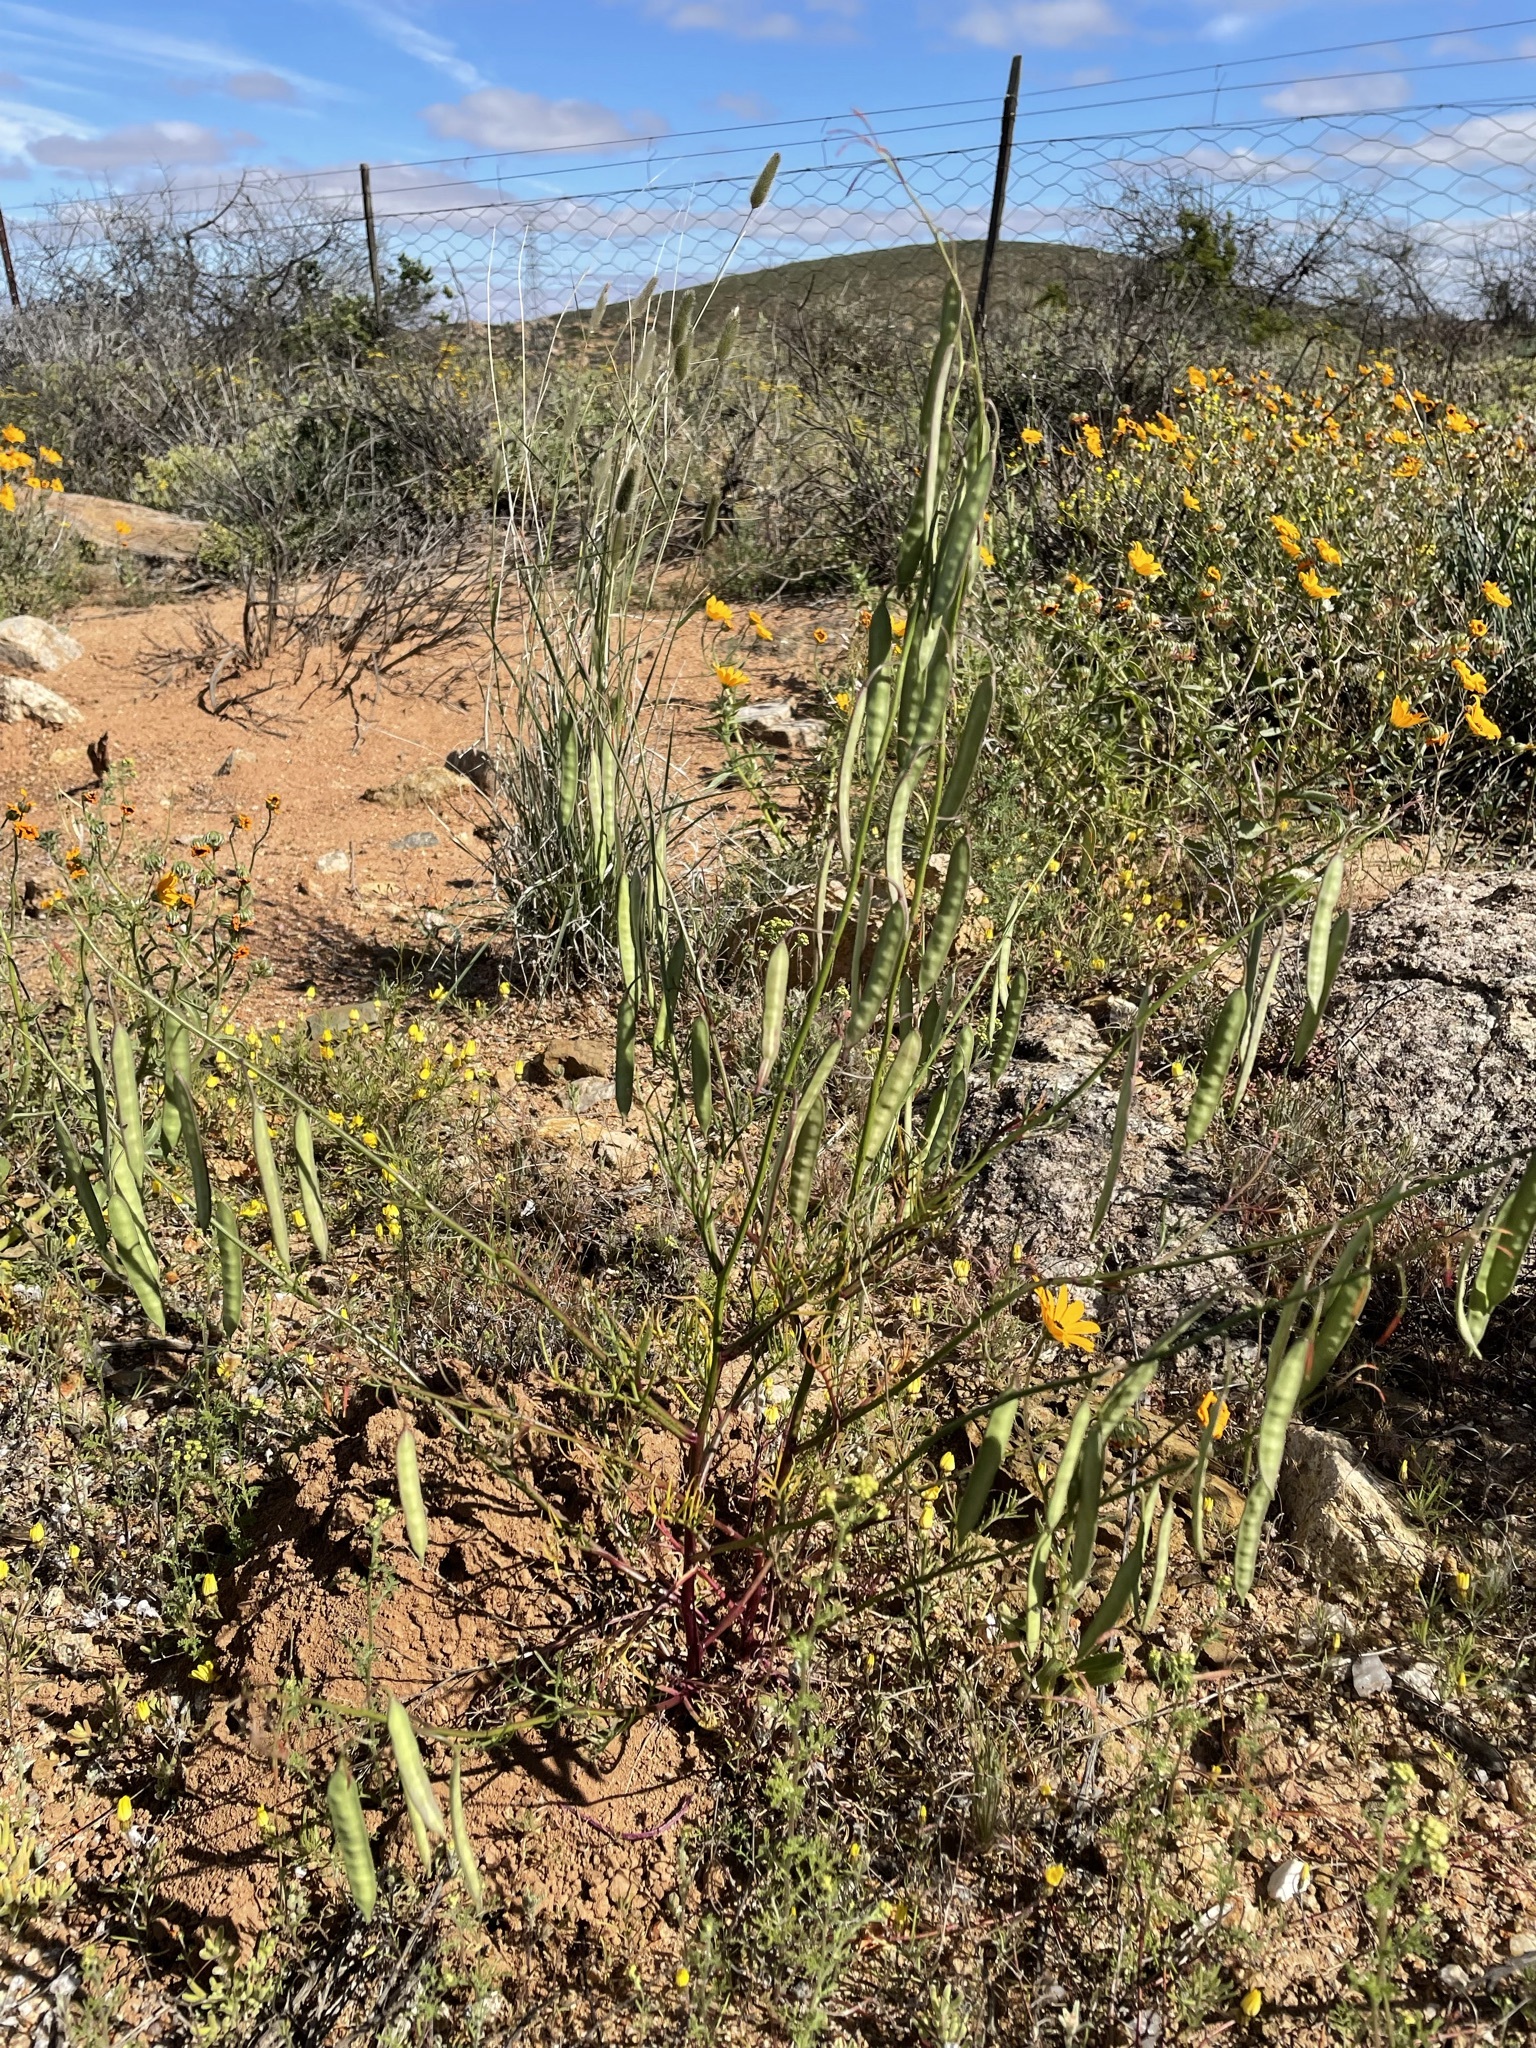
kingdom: Plantae
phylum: Tracheophyta
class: Magnoliopsida
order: Brassicales
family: Brassicaceae
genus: Heliophila
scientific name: Heliophila thunbergii
